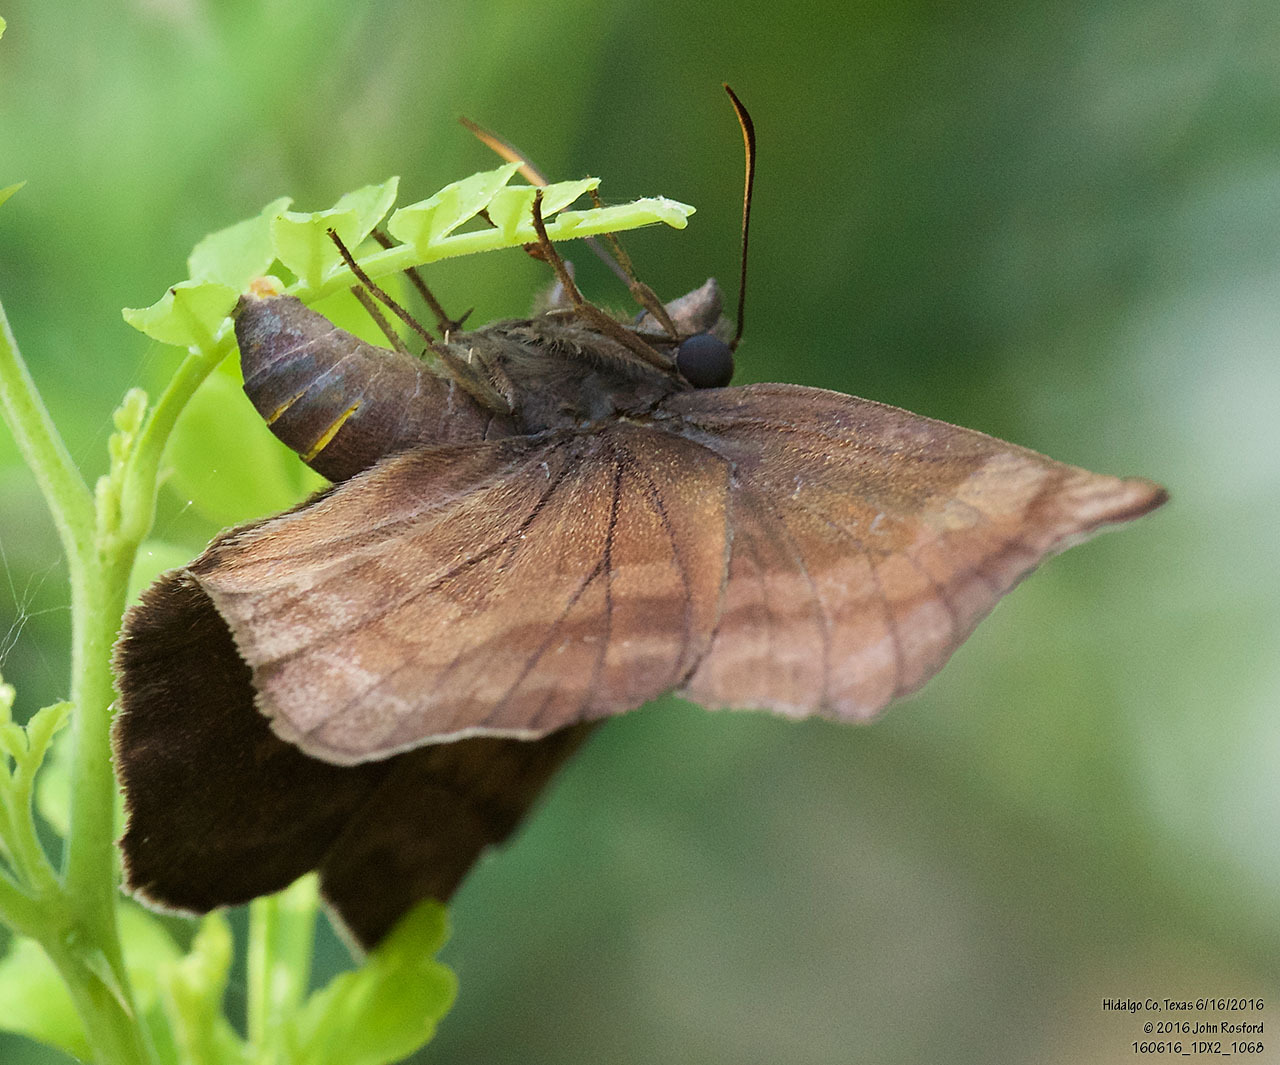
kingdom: Animalia
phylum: Arthropoda
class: Insecta
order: Lepidoptera
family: Hesperiidae
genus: Achlyodes
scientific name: Achlyodes thraso
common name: Sickle-winged skipper
